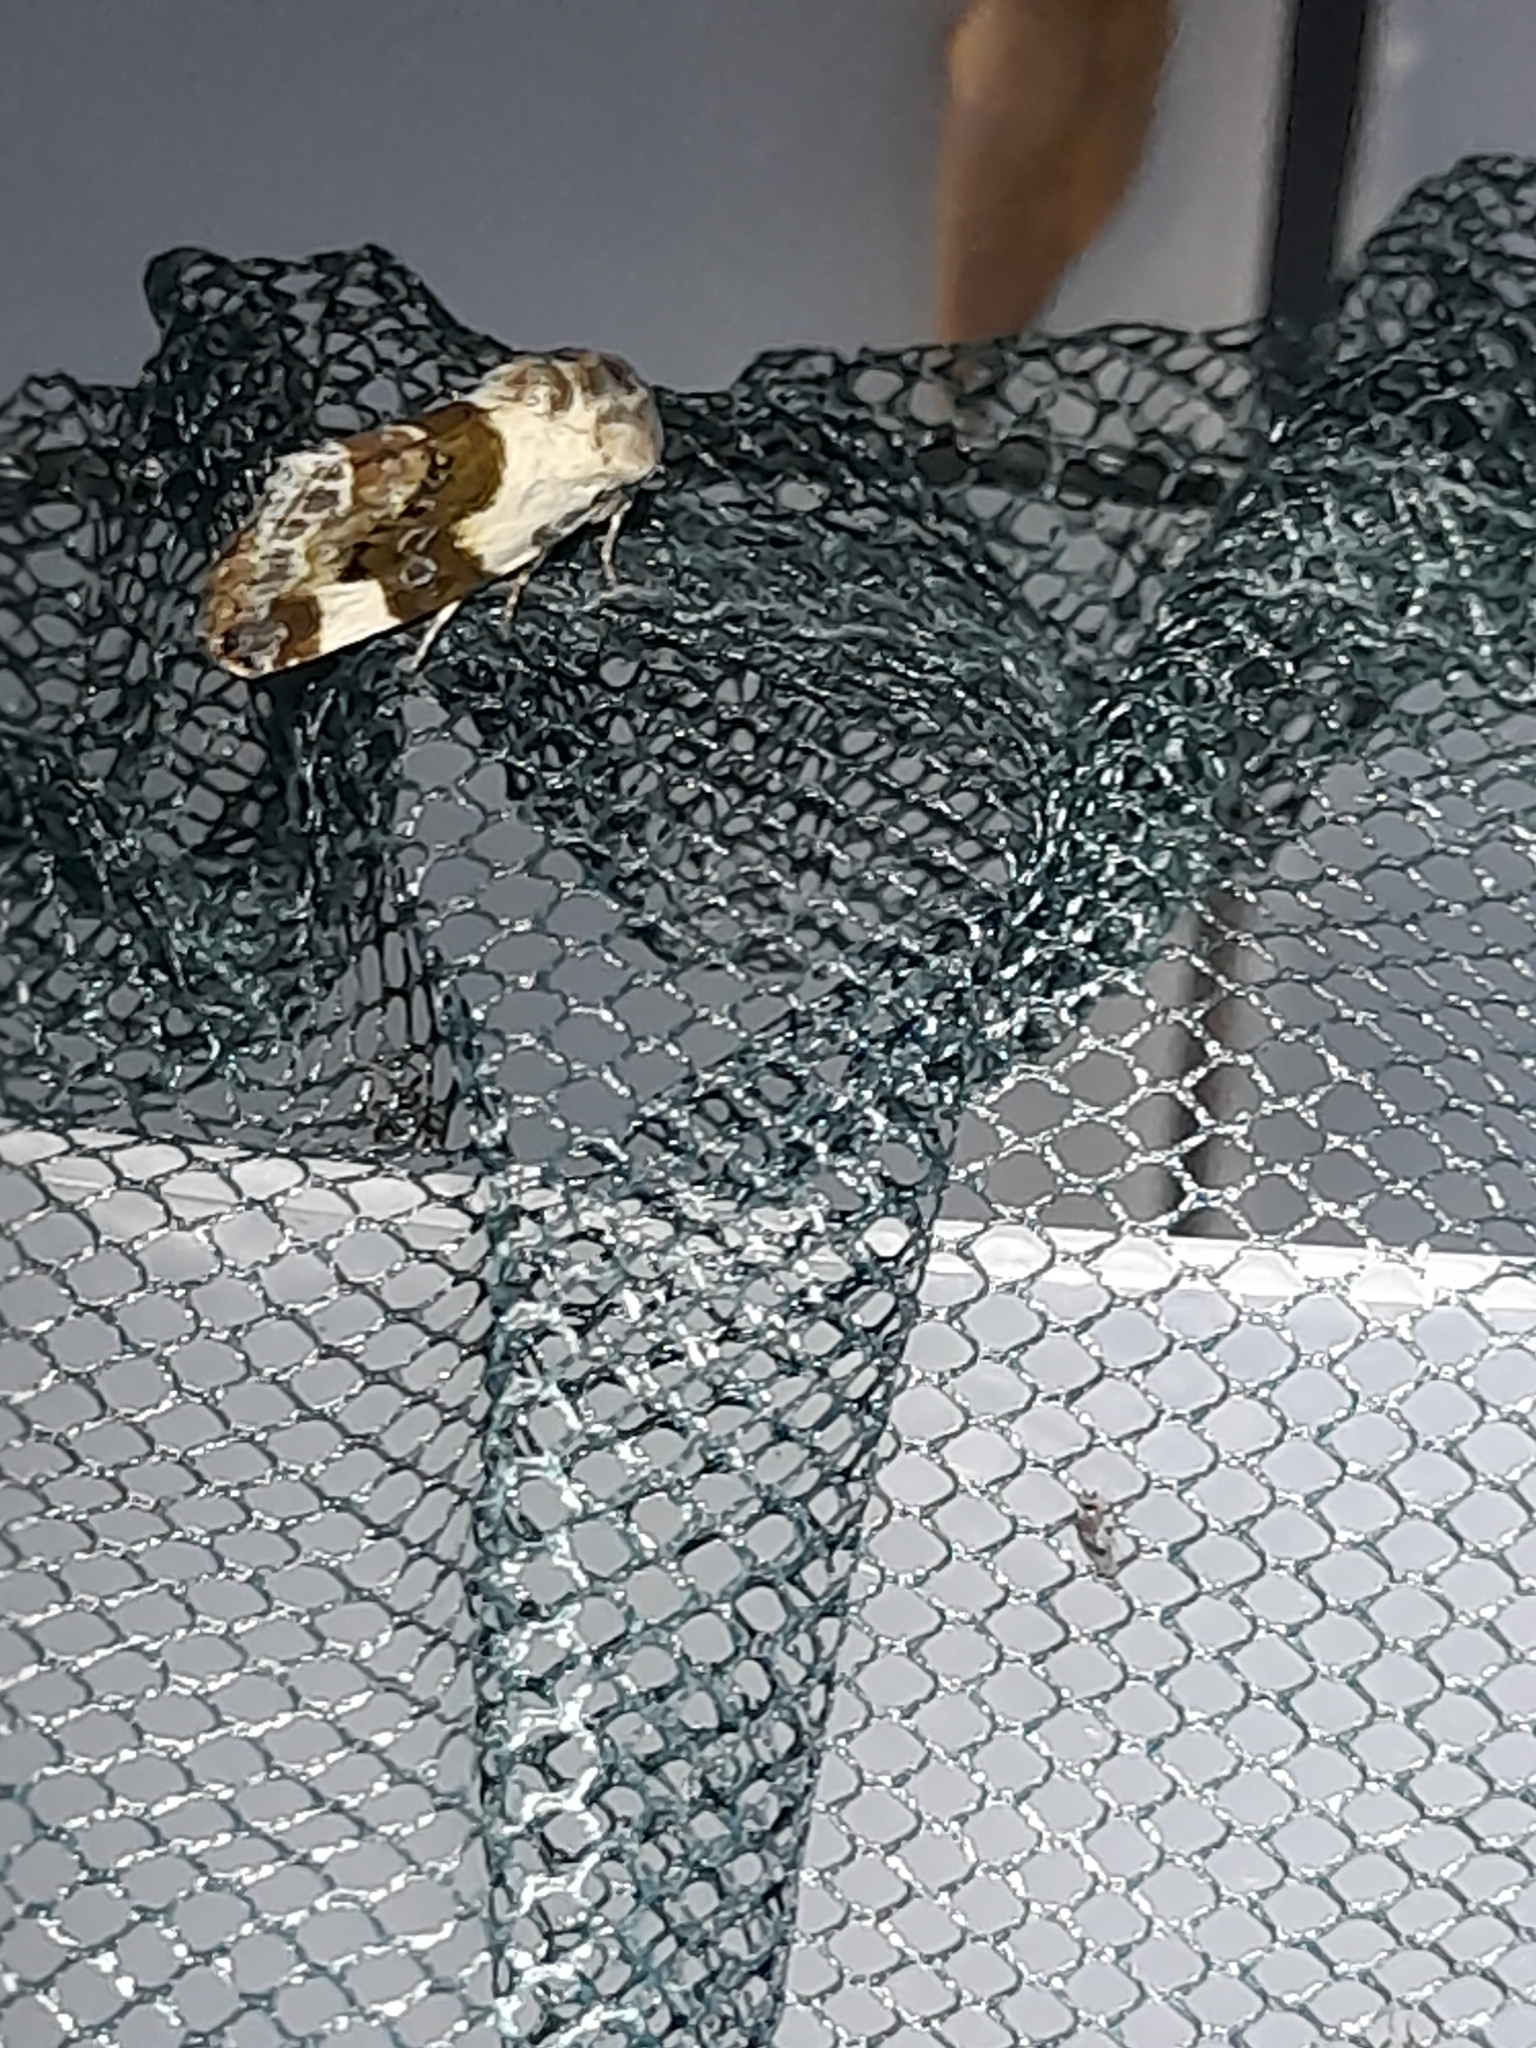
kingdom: Animalia
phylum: Arthropoda
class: Insecta
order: Lepidoptera
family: Noctuidae
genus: Acontia
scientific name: Acontia lucida
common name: Pale shoulder
